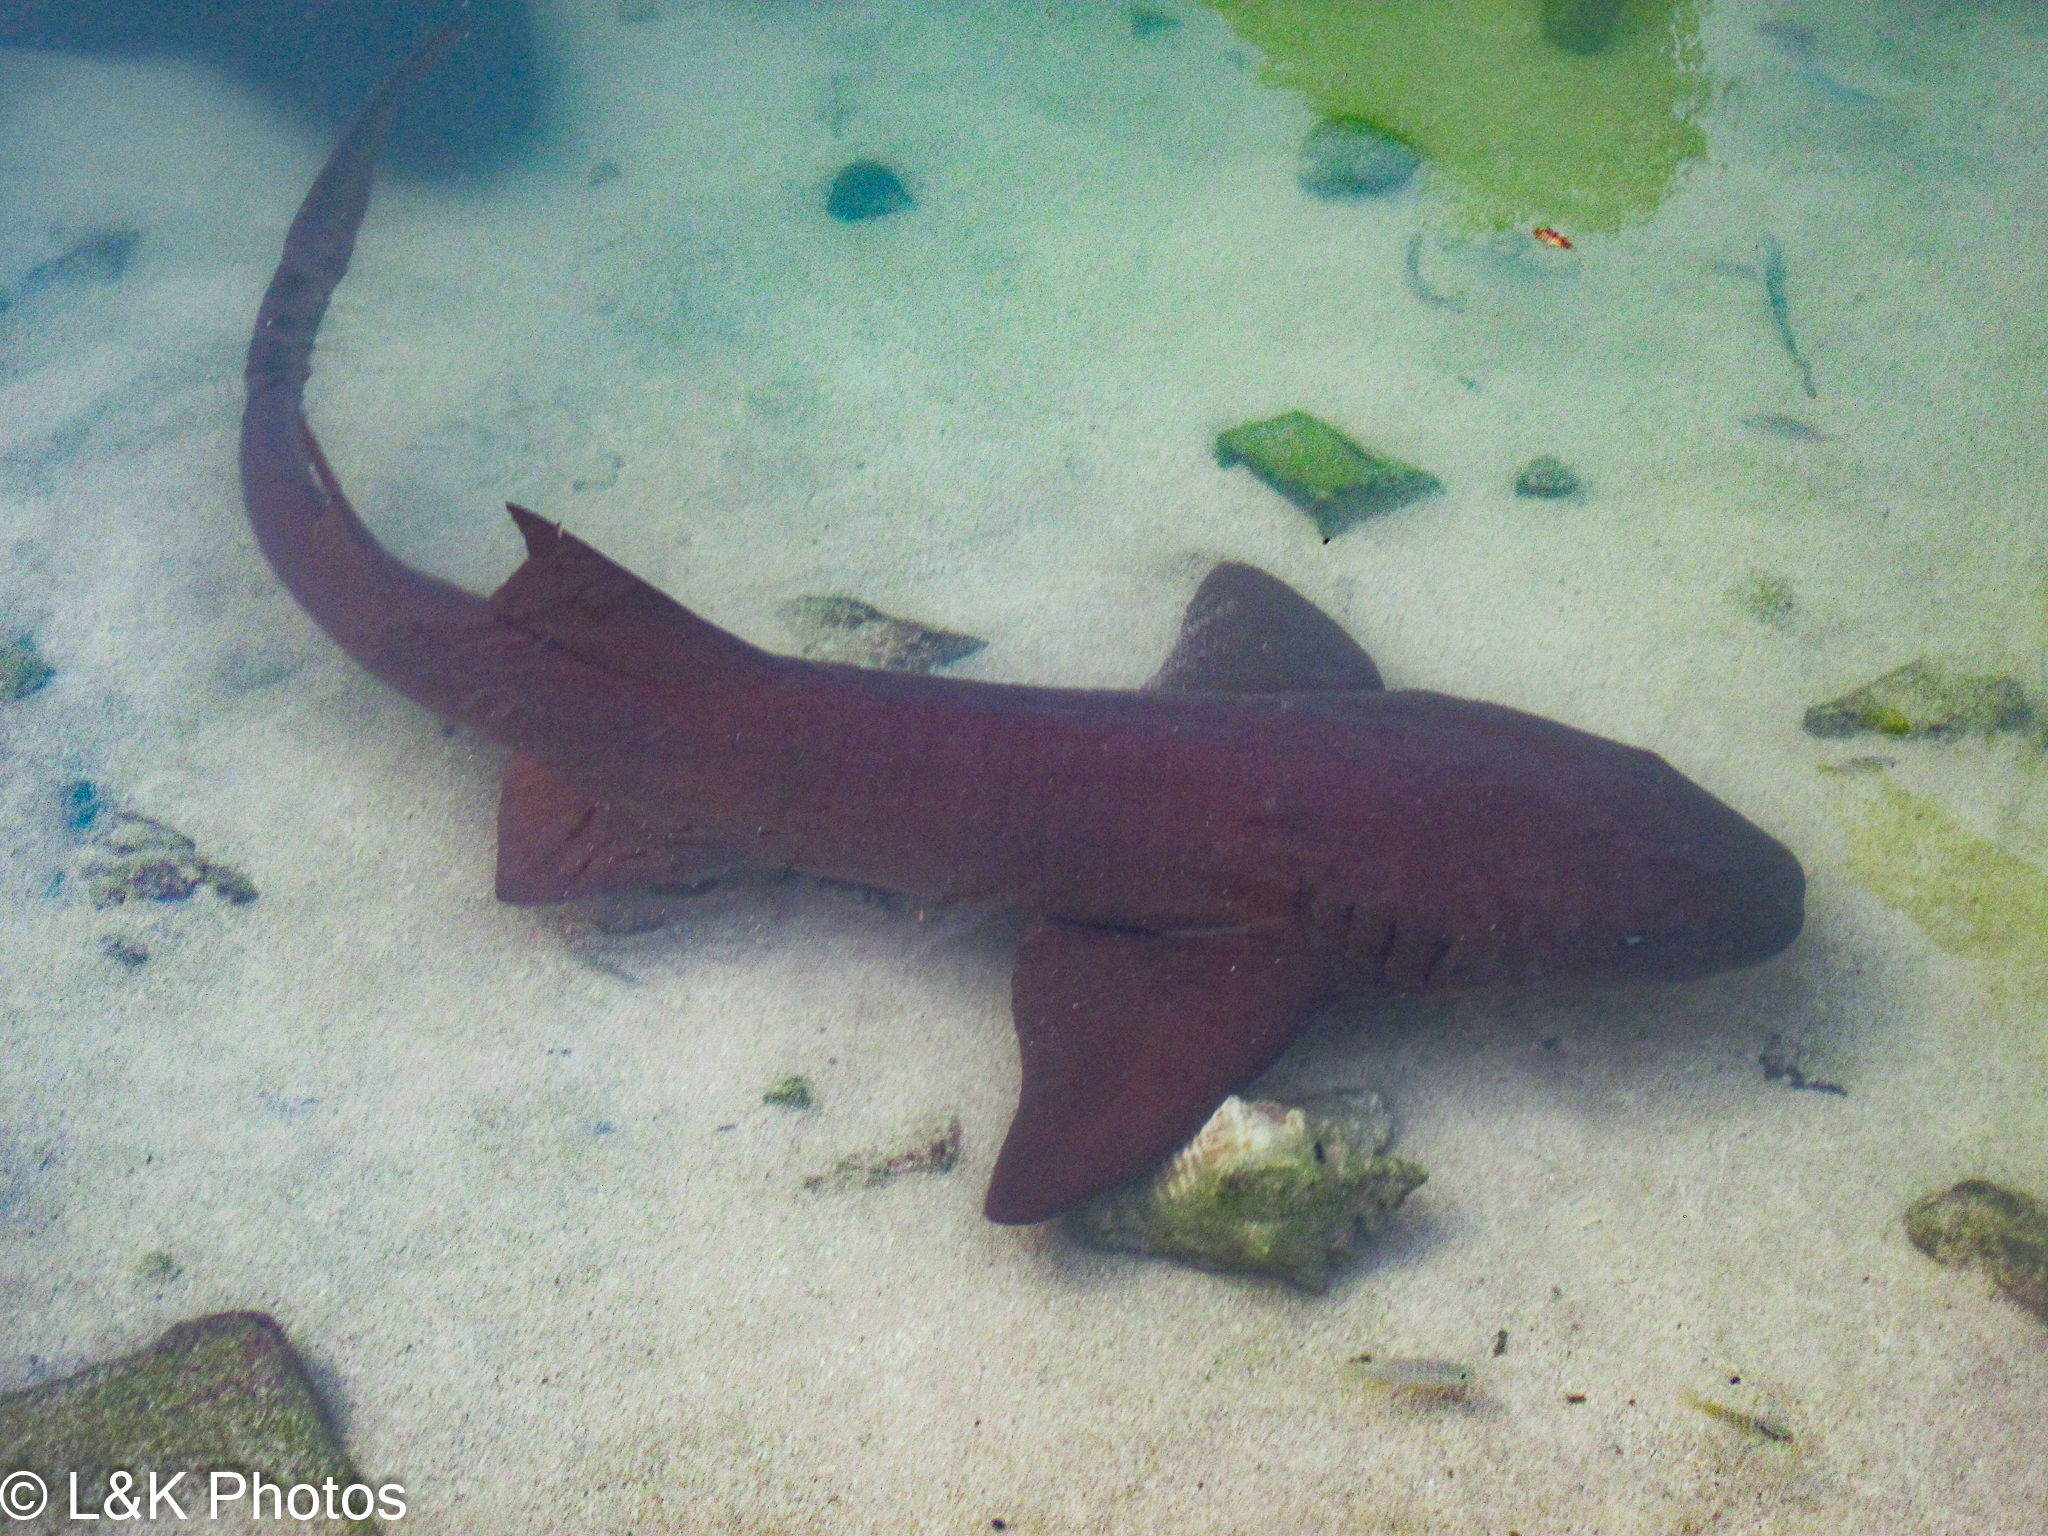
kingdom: Animalia
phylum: Chordata
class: Elasmobranchii
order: Orectolobiformes
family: Ginglymostomatidae
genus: Ginglymostoma
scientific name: Ginglymostoma cirratum
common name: Nurse shark
